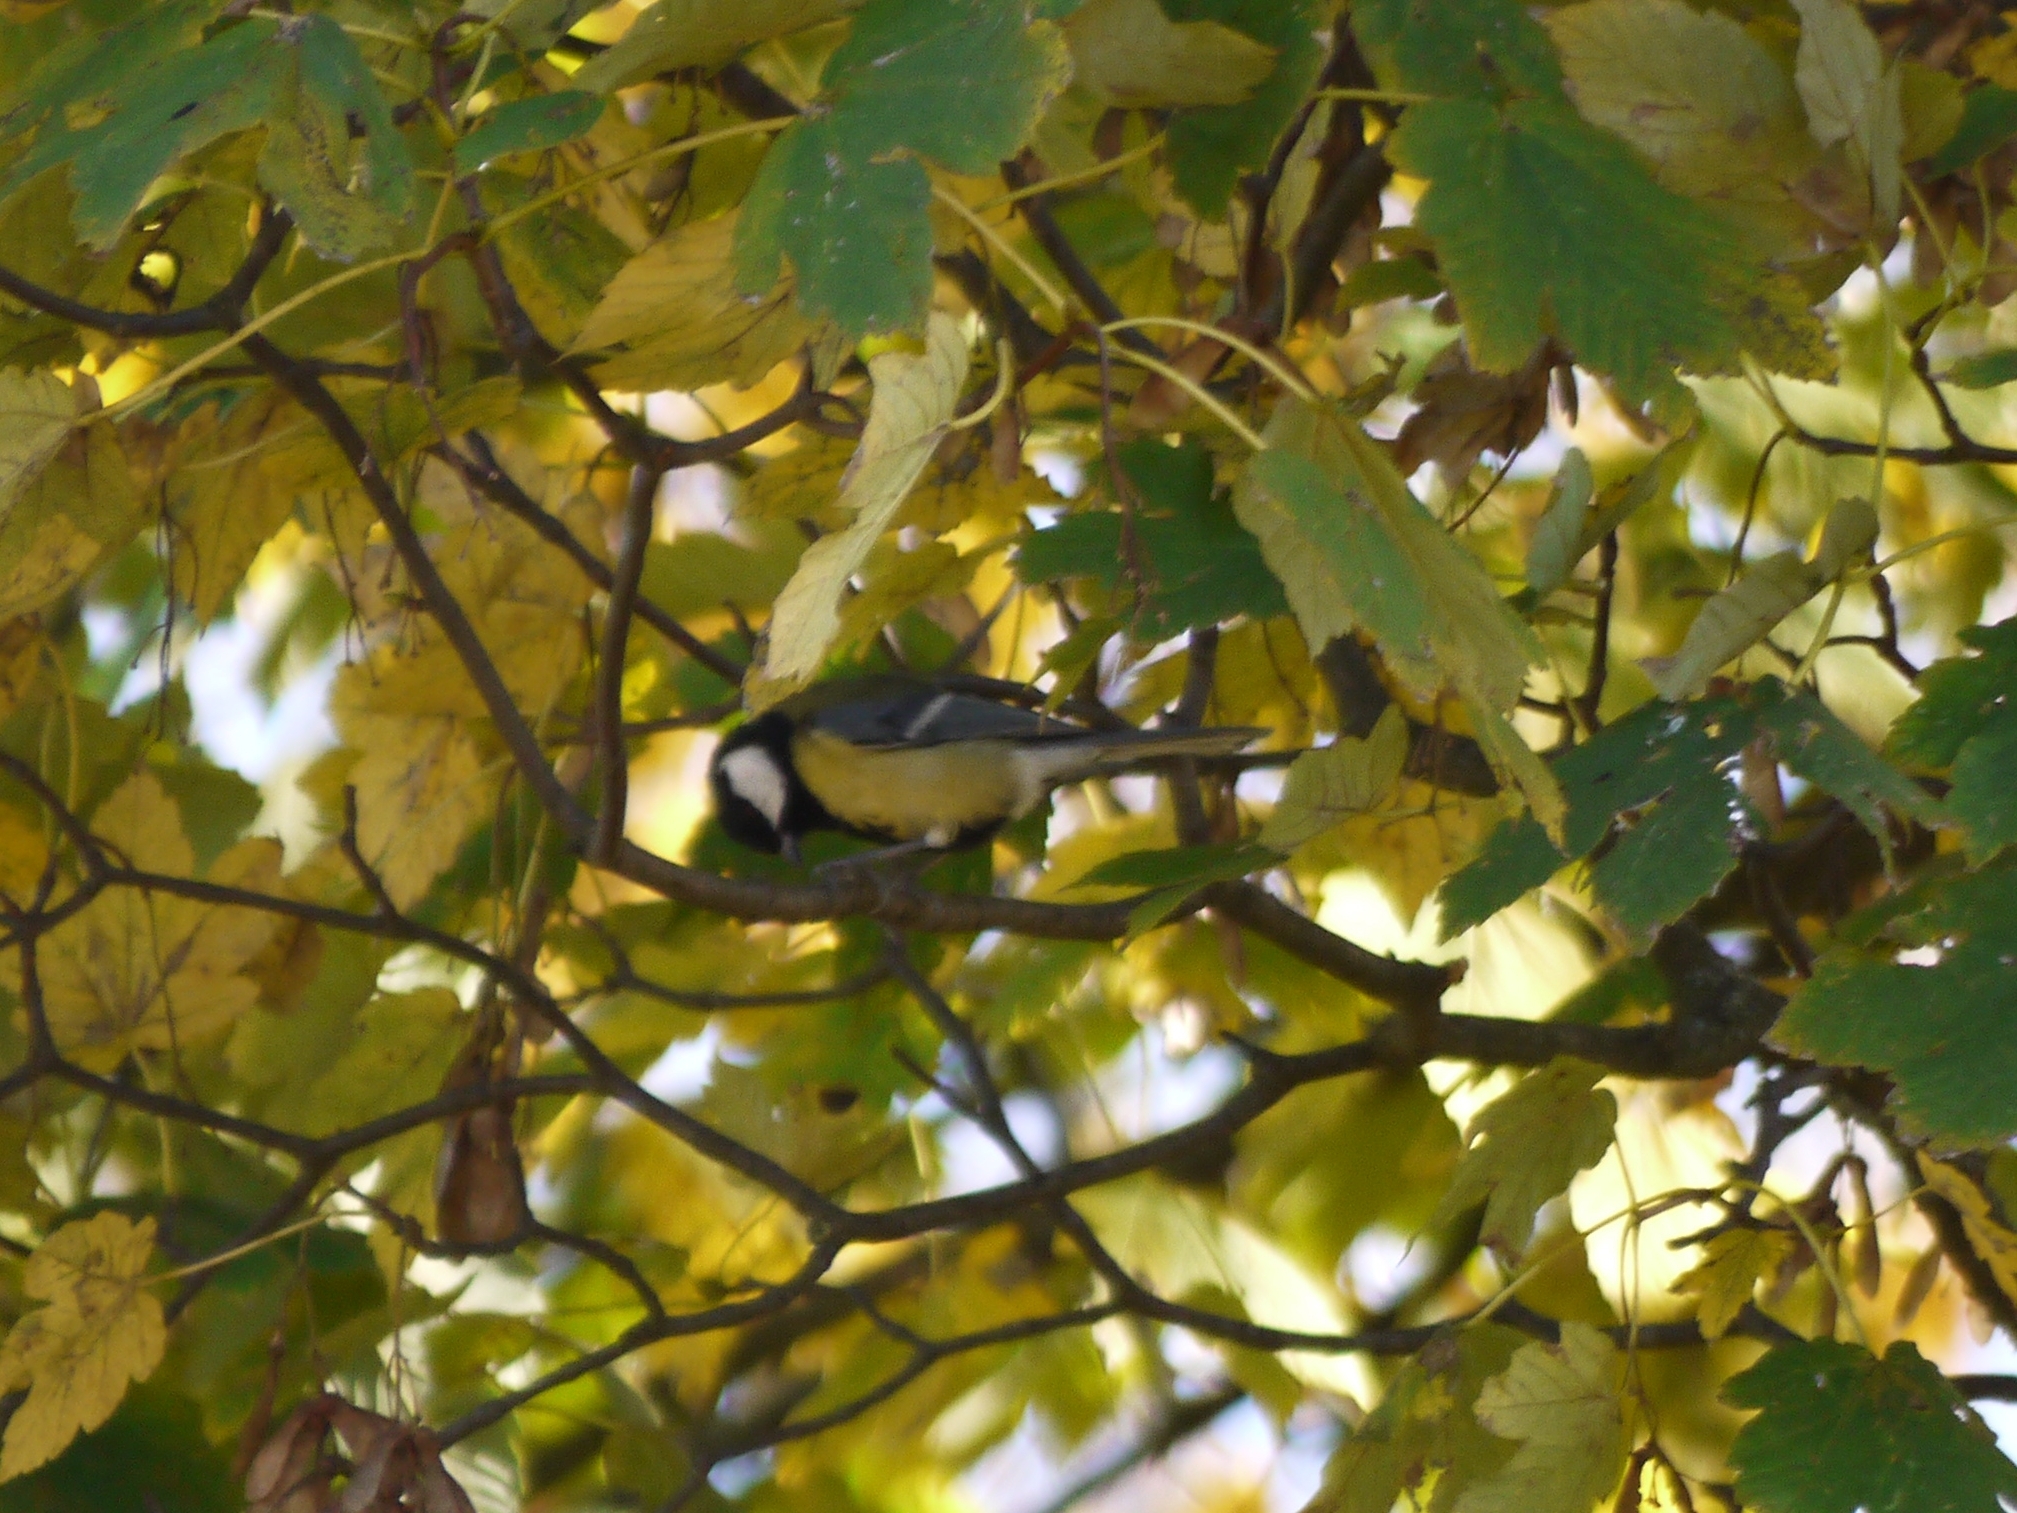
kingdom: Animalia
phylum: Chordata
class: Aves
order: Passeriformes
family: Paridae
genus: Parus
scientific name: Parus major
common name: Great tit
